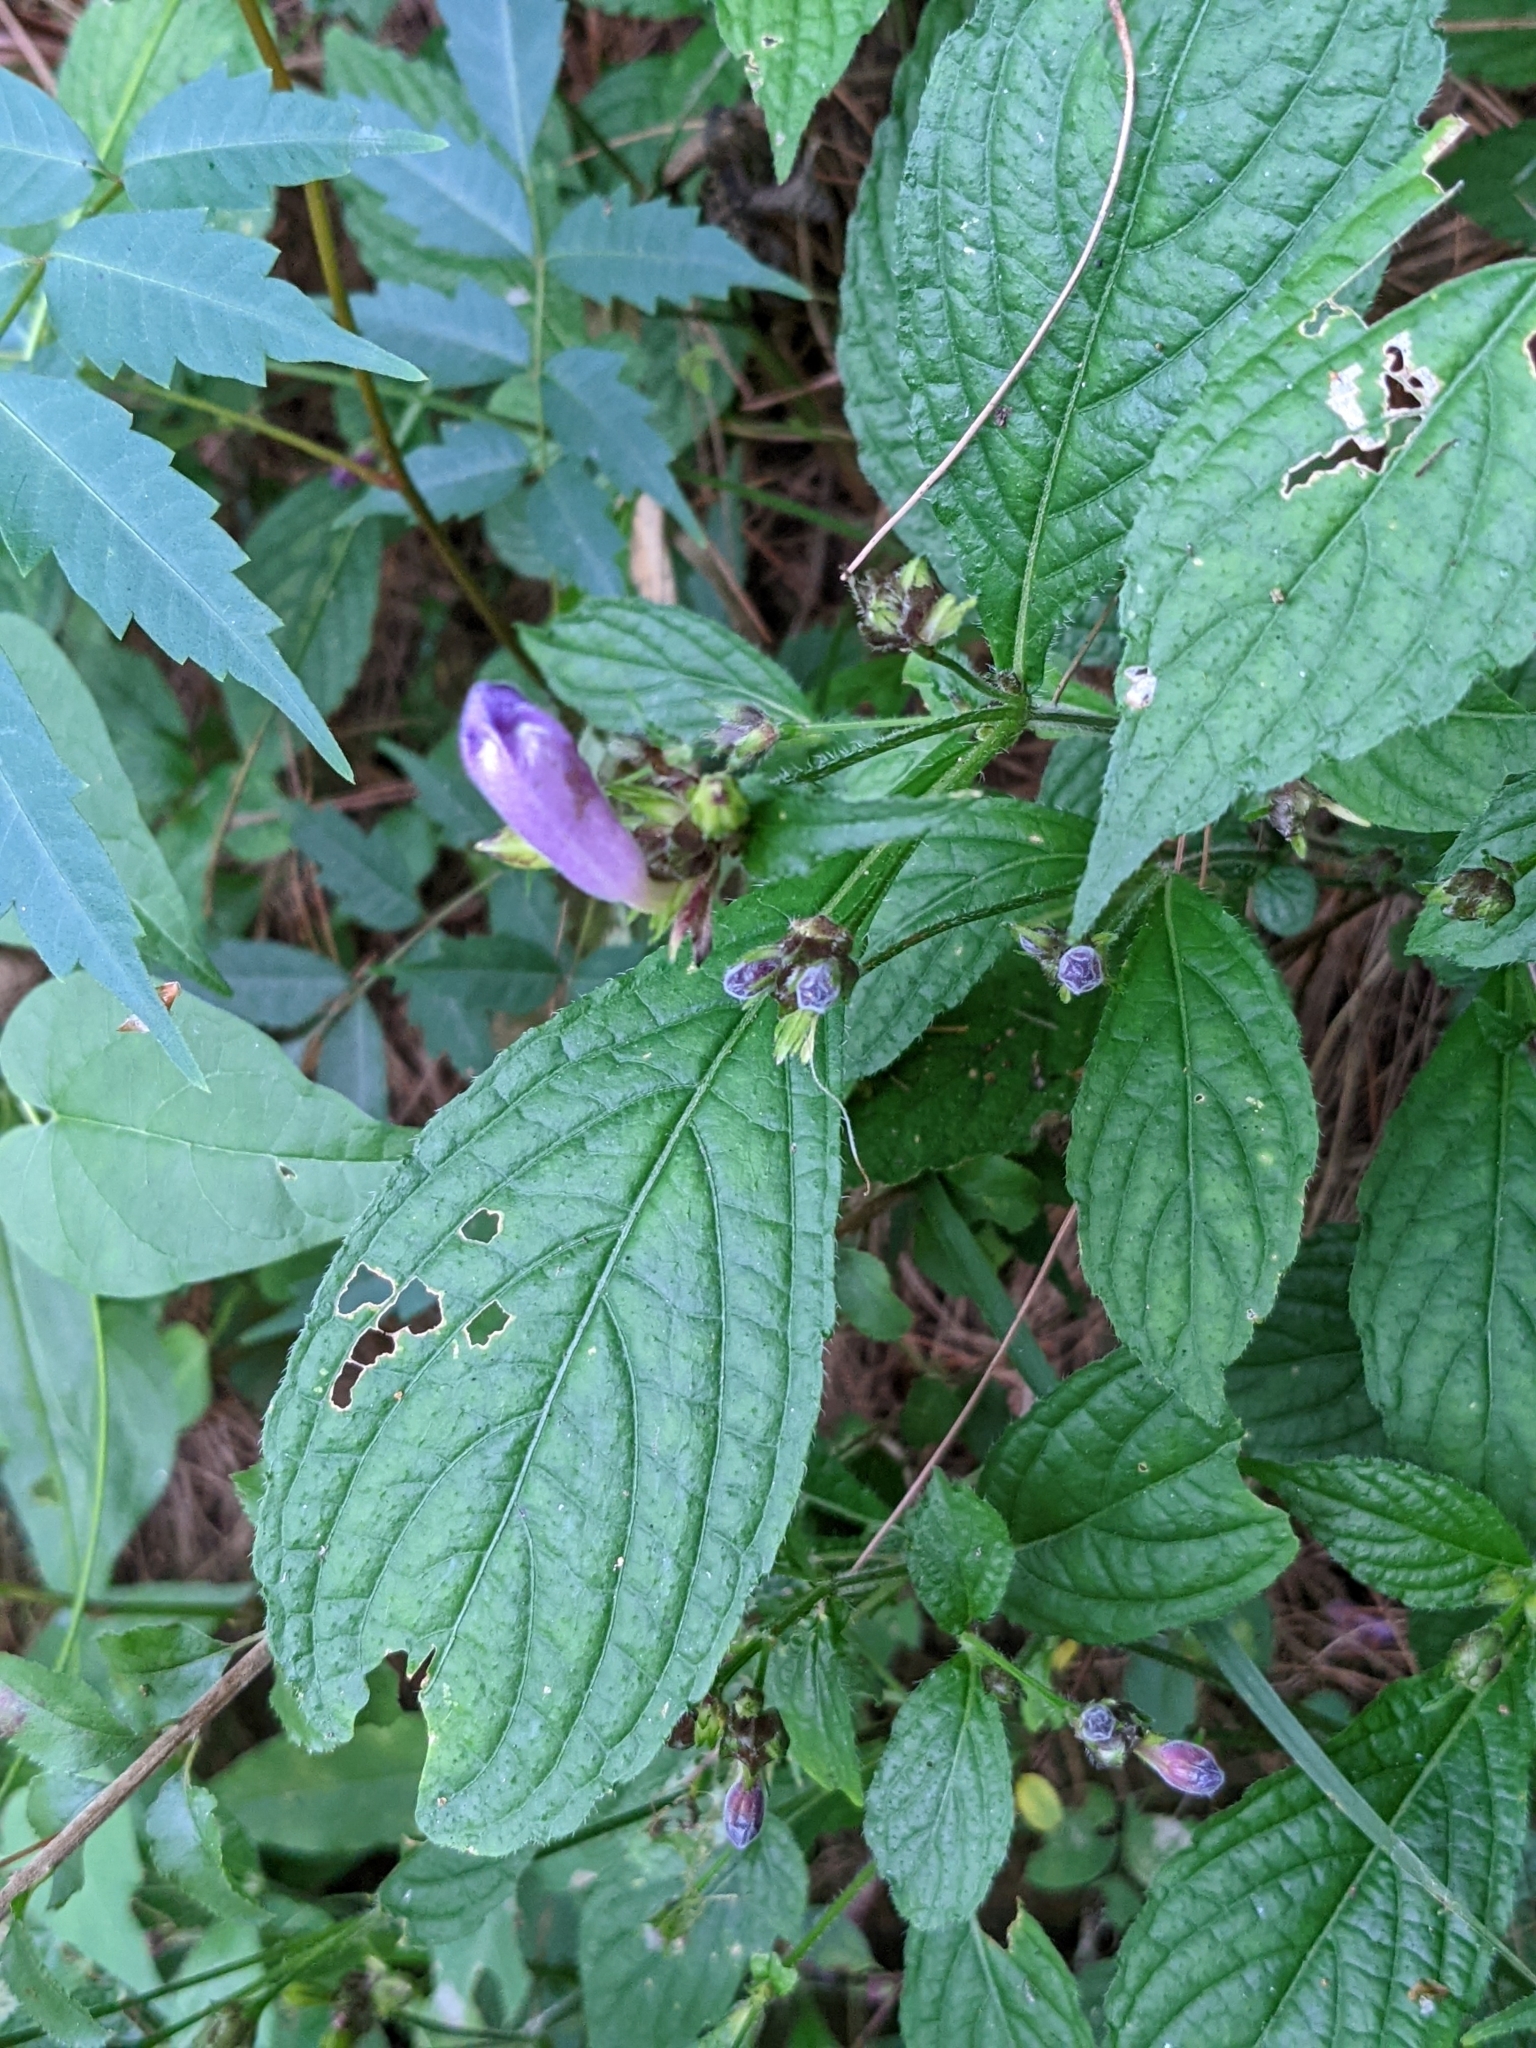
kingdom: Plantae
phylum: Tracheophyta
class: Magnoliopsida
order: Lamiales
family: Acanthaceae
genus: Strobilanthes
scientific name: Strobilanthes formosana
